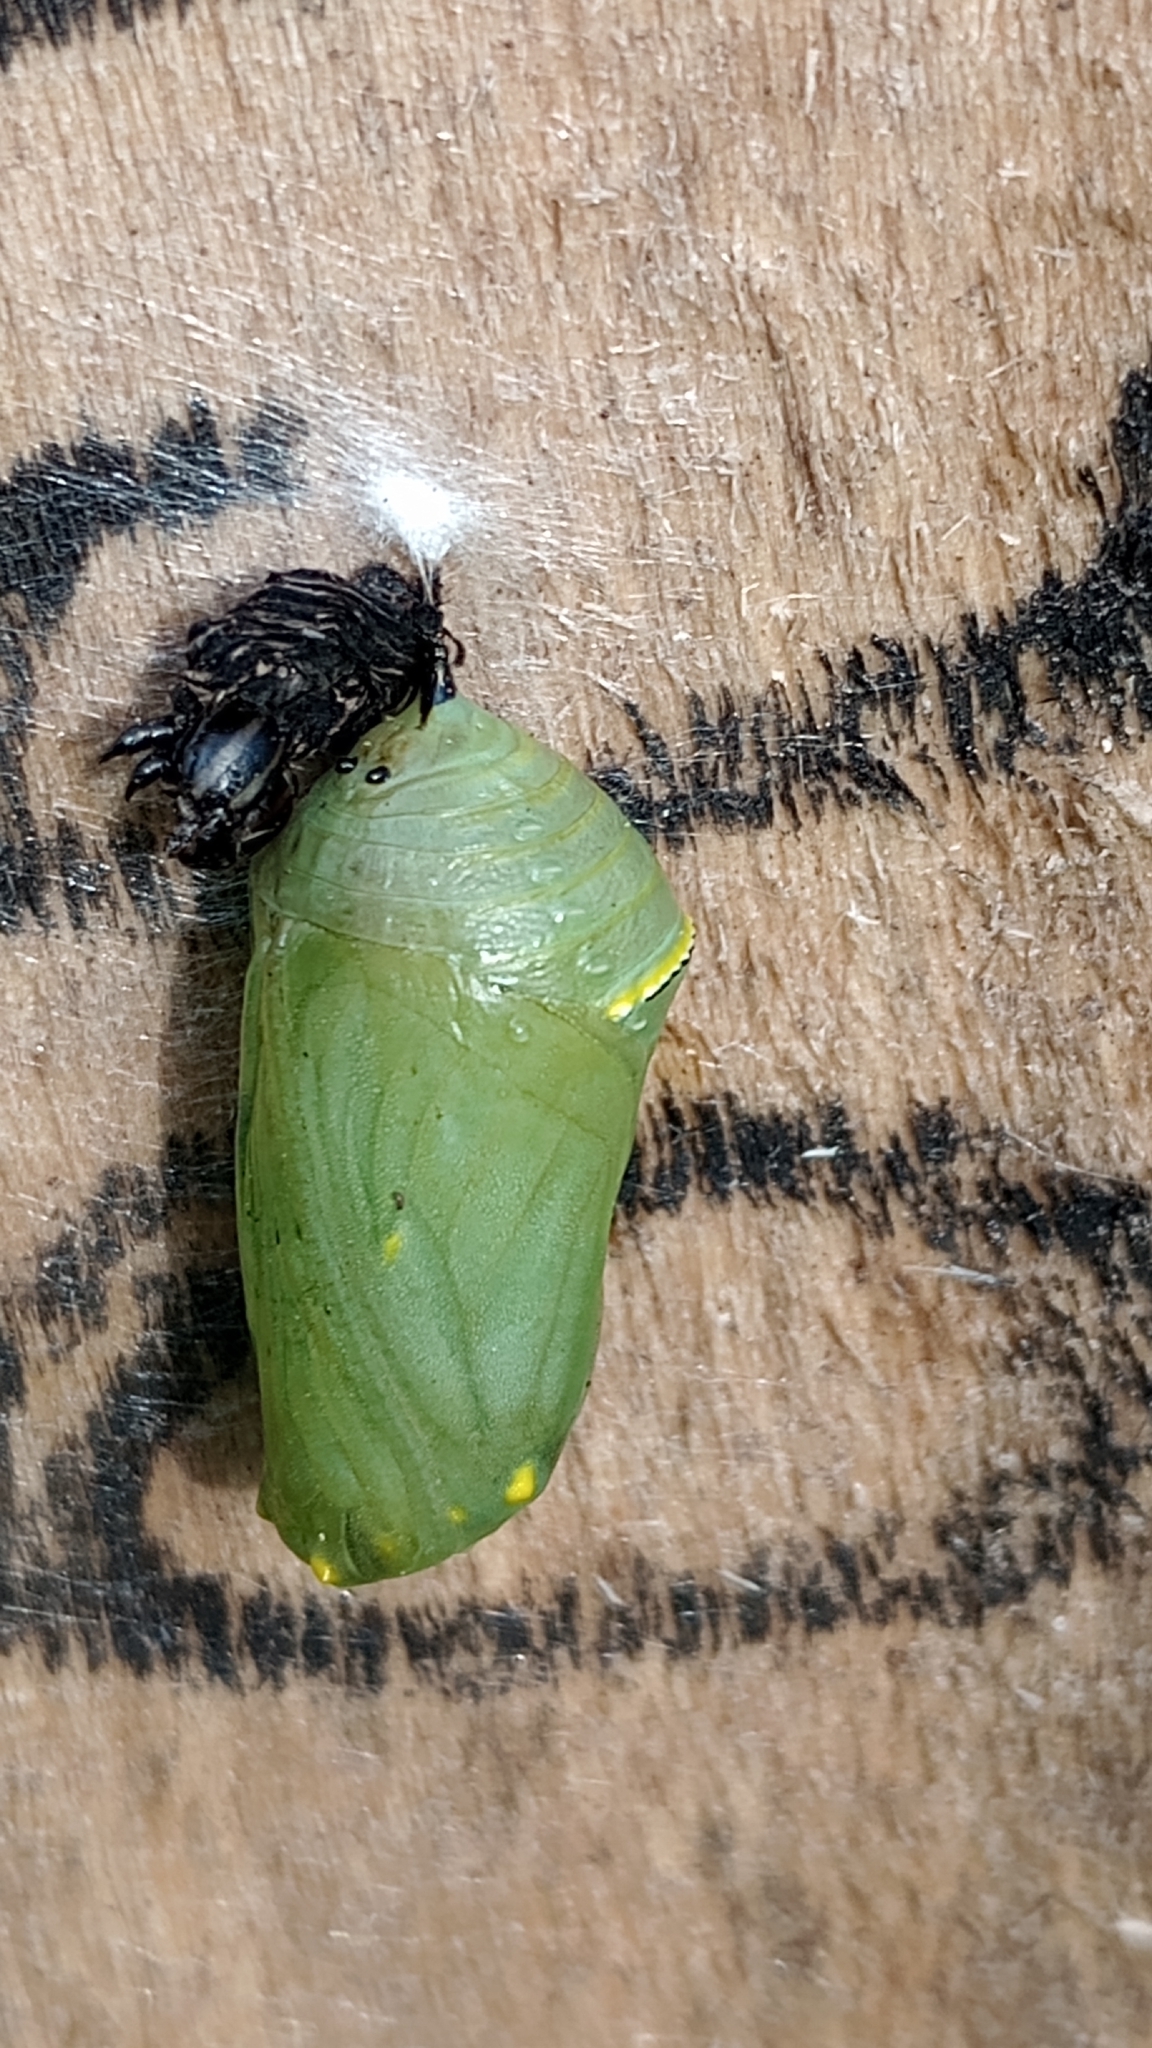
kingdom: Animalia
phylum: Arthropoda
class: Insecta
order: Lepidoptera
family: Nymphalidae
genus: Danaus
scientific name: Danaus erippus
